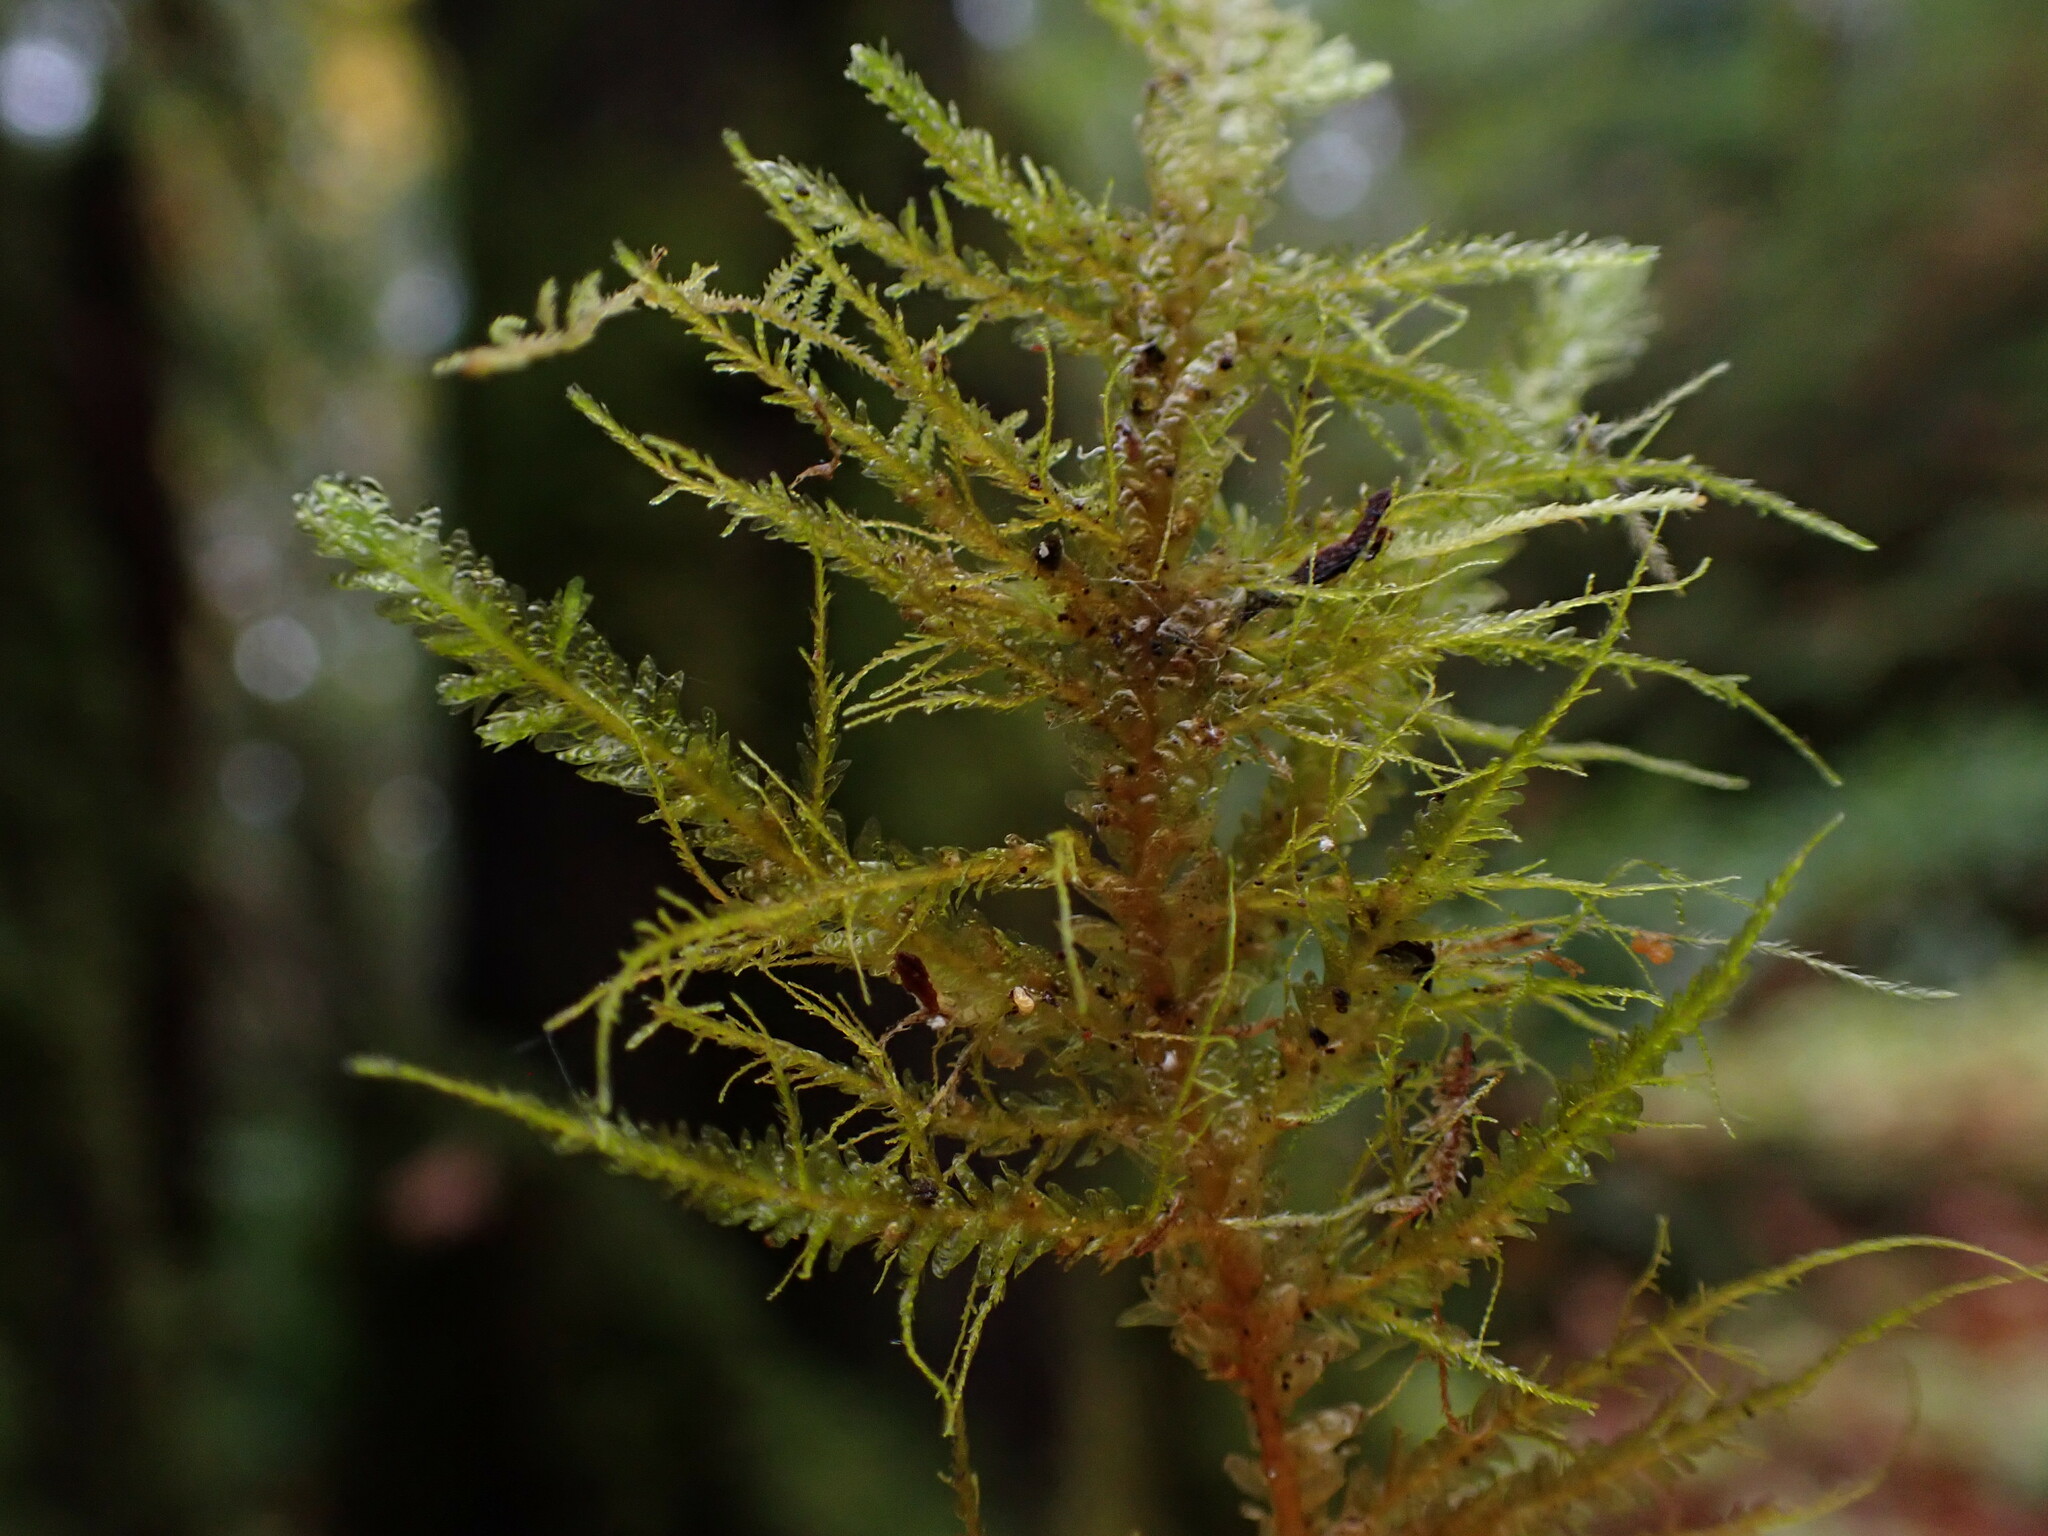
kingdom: Plantae
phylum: Bryophyta
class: Bryopsida
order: Hypnales
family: Neckeraceae
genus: Metaneckera
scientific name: Metaneckera menziesii
